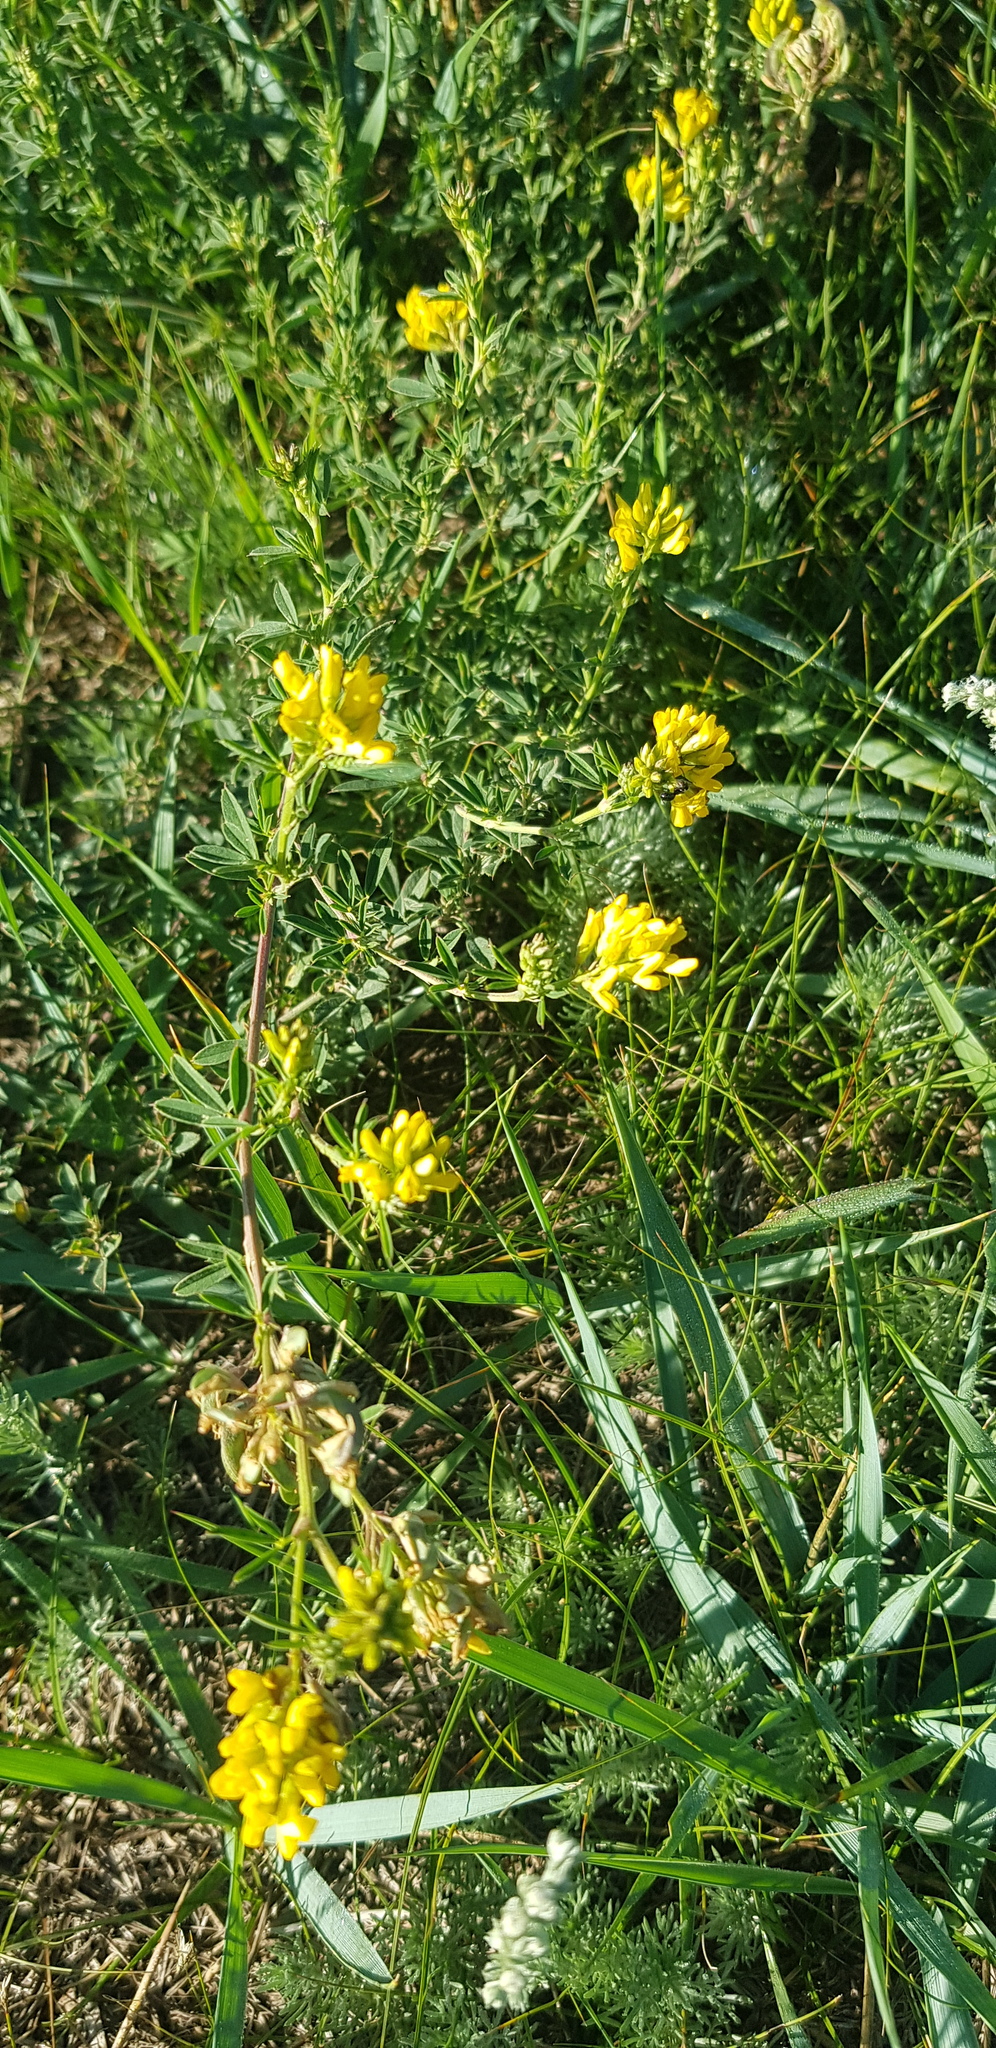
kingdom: Plantae
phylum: Tracheophyta
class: Magnoliopsida
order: Fabales
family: Fabaceae
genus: Medicago
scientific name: Medicago falcata
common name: Sickle medick
